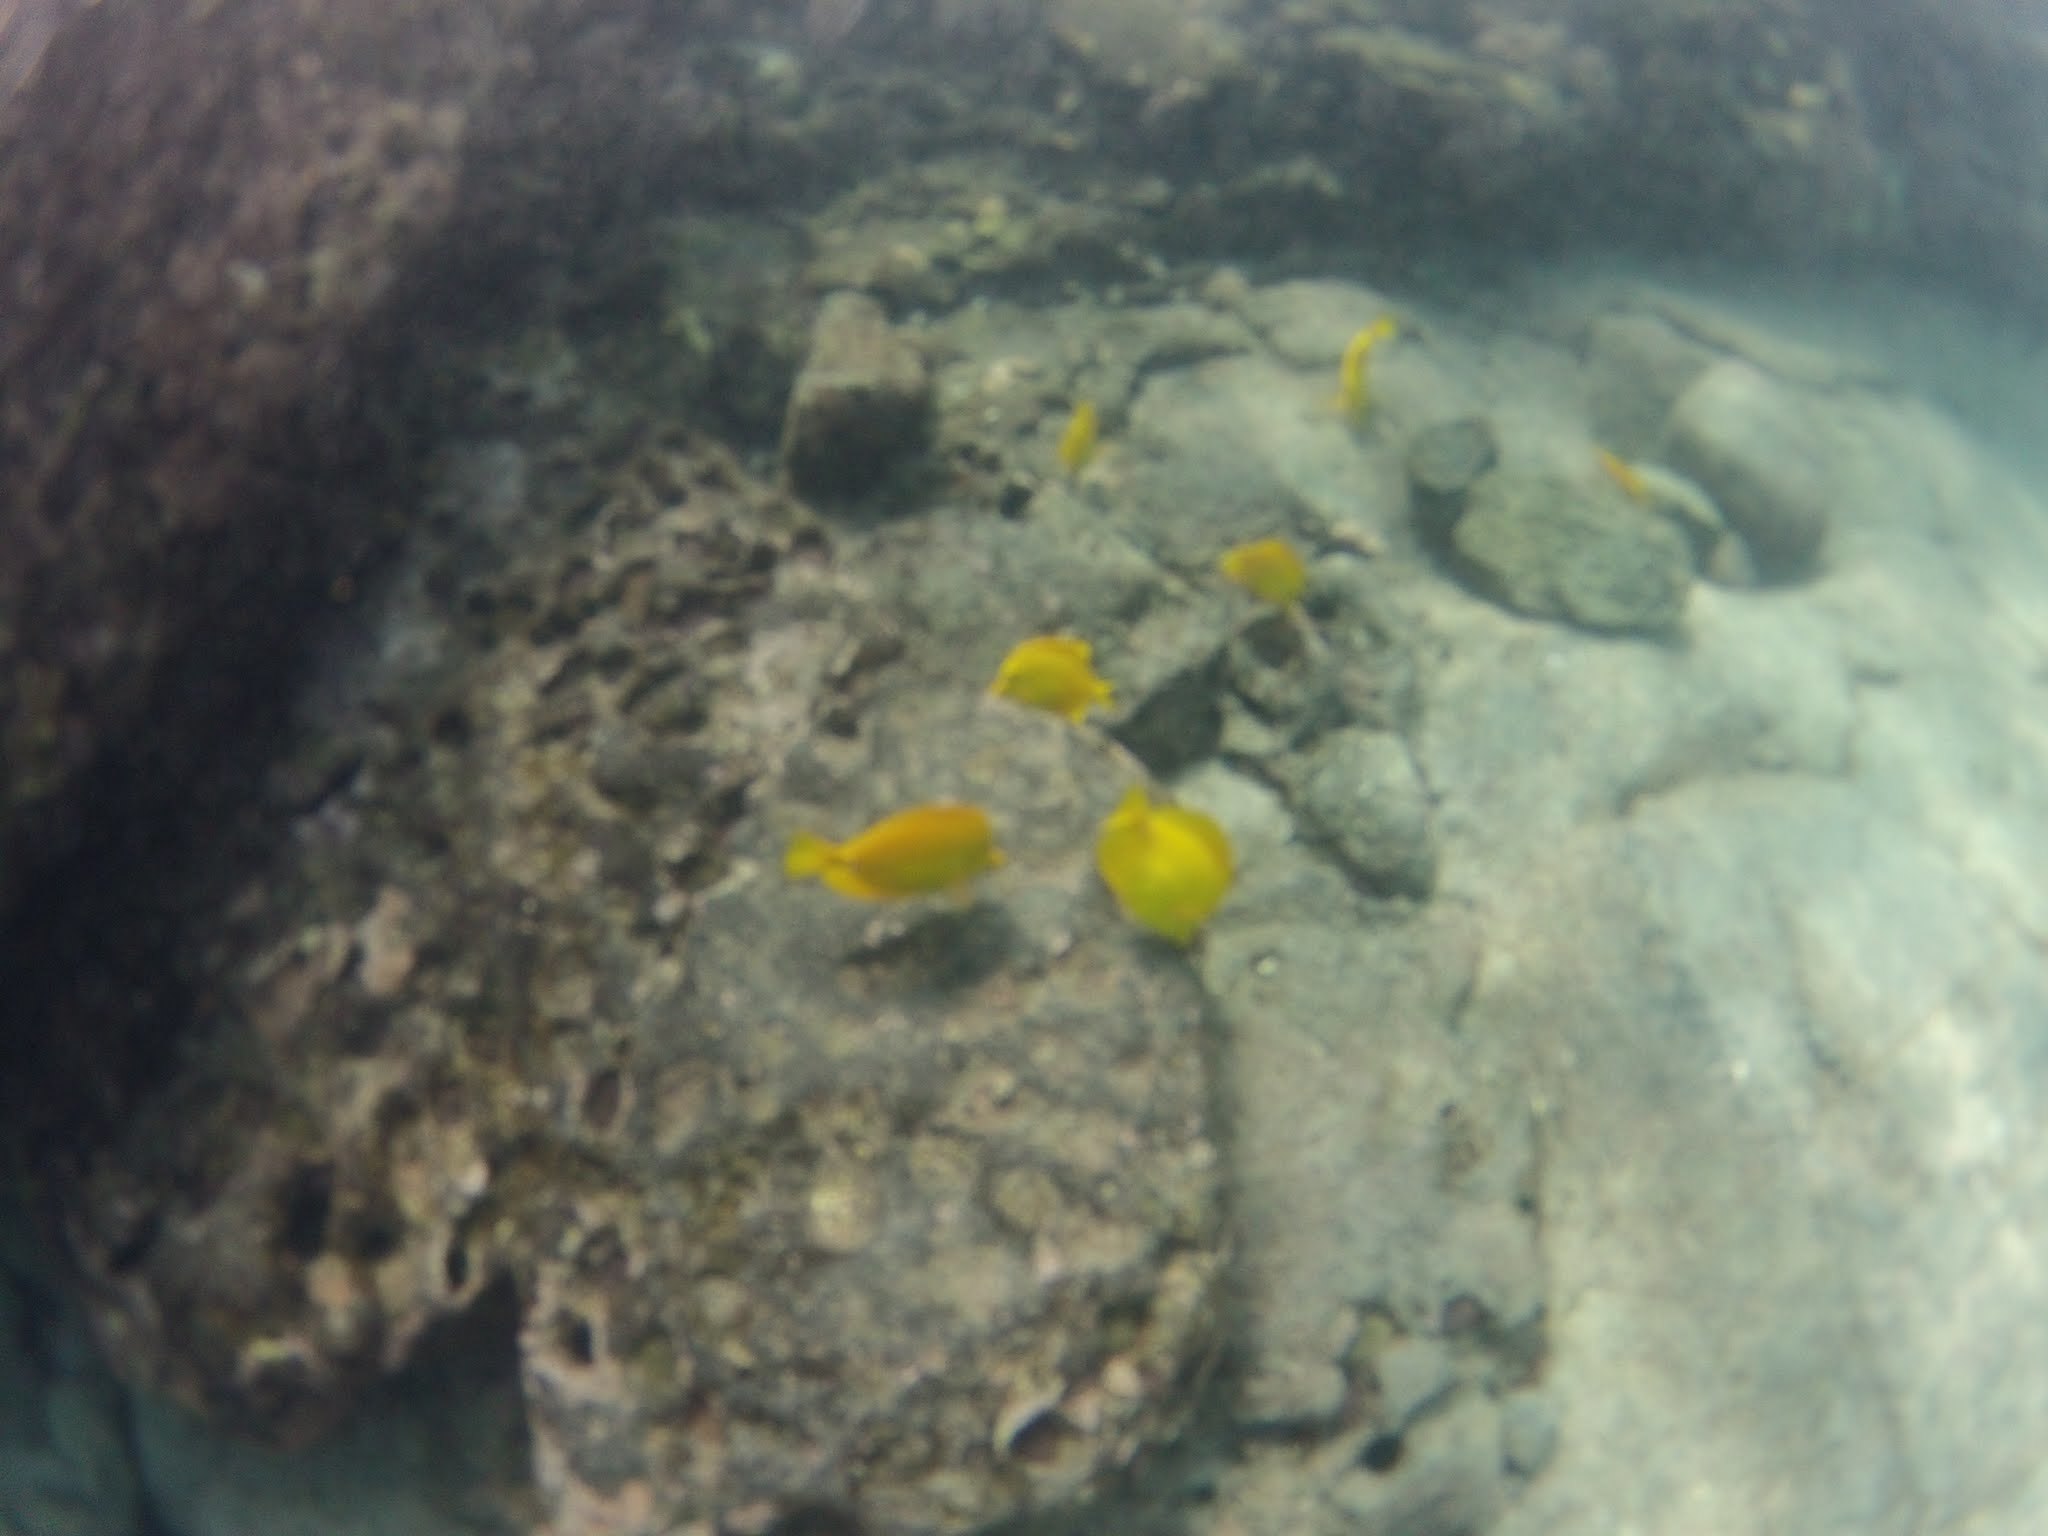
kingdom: Animalia
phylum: Chordata
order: Perciformes
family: Acanthuridae
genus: Zebrasoma
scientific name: Zebrasoma flavescens
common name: Yellow tang
